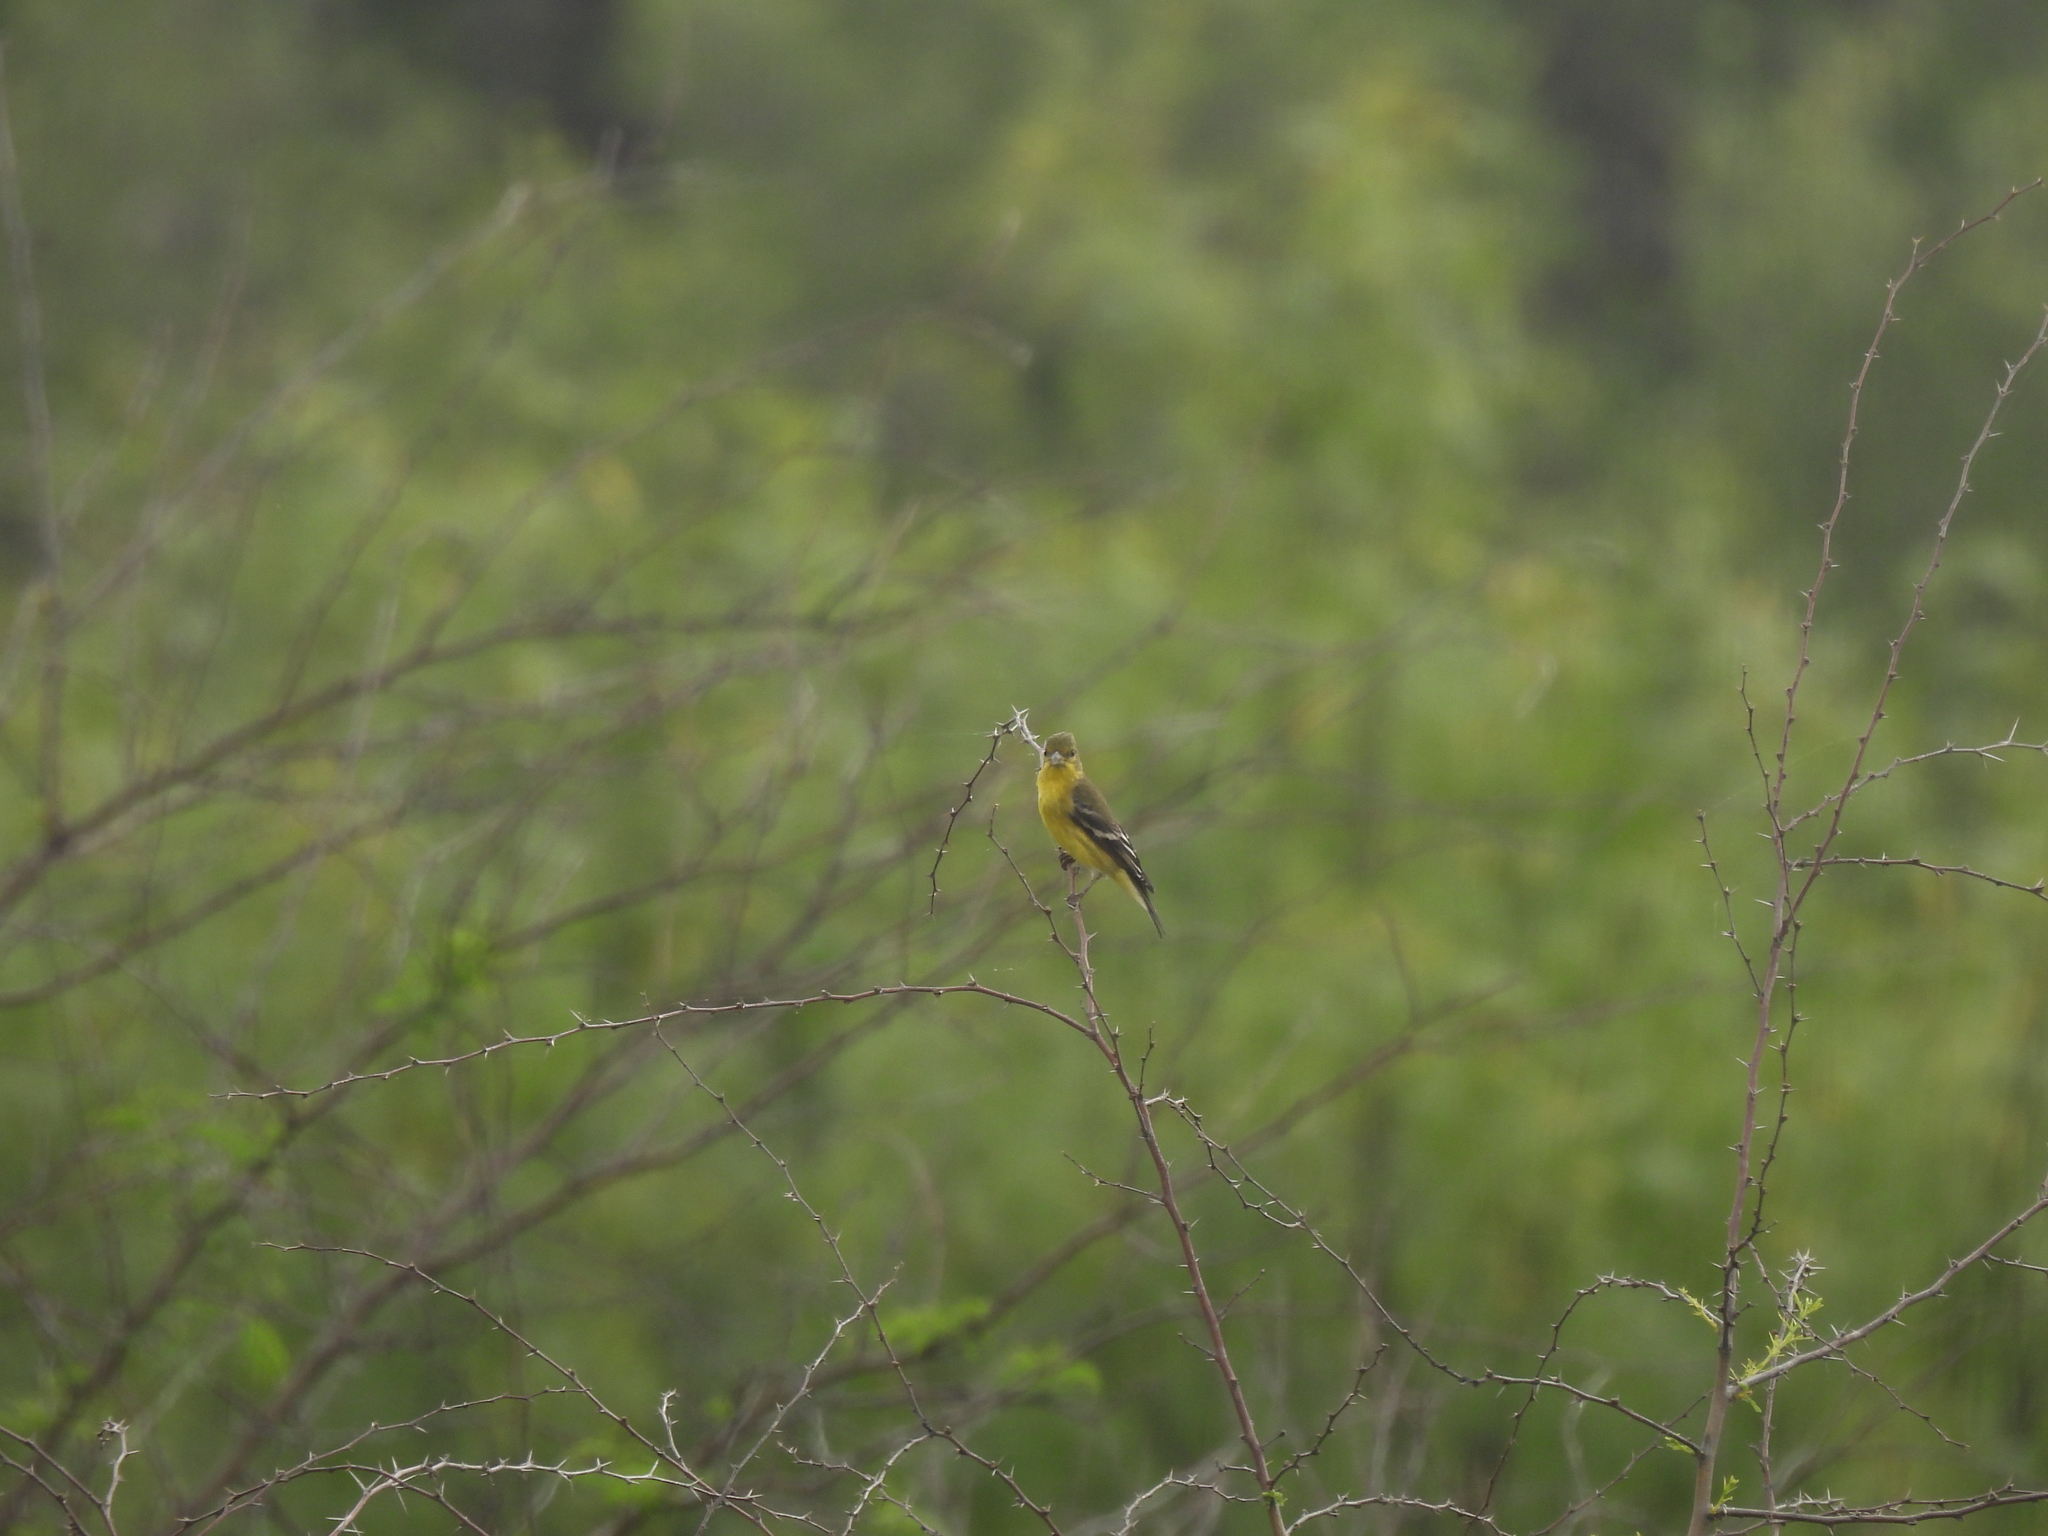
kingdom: Animalia
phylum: Chordata
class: Aves
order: Passeriformes
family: Fringillidae
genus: Spinus
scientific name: Spinus psaltria
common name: Lesser goldfinch
